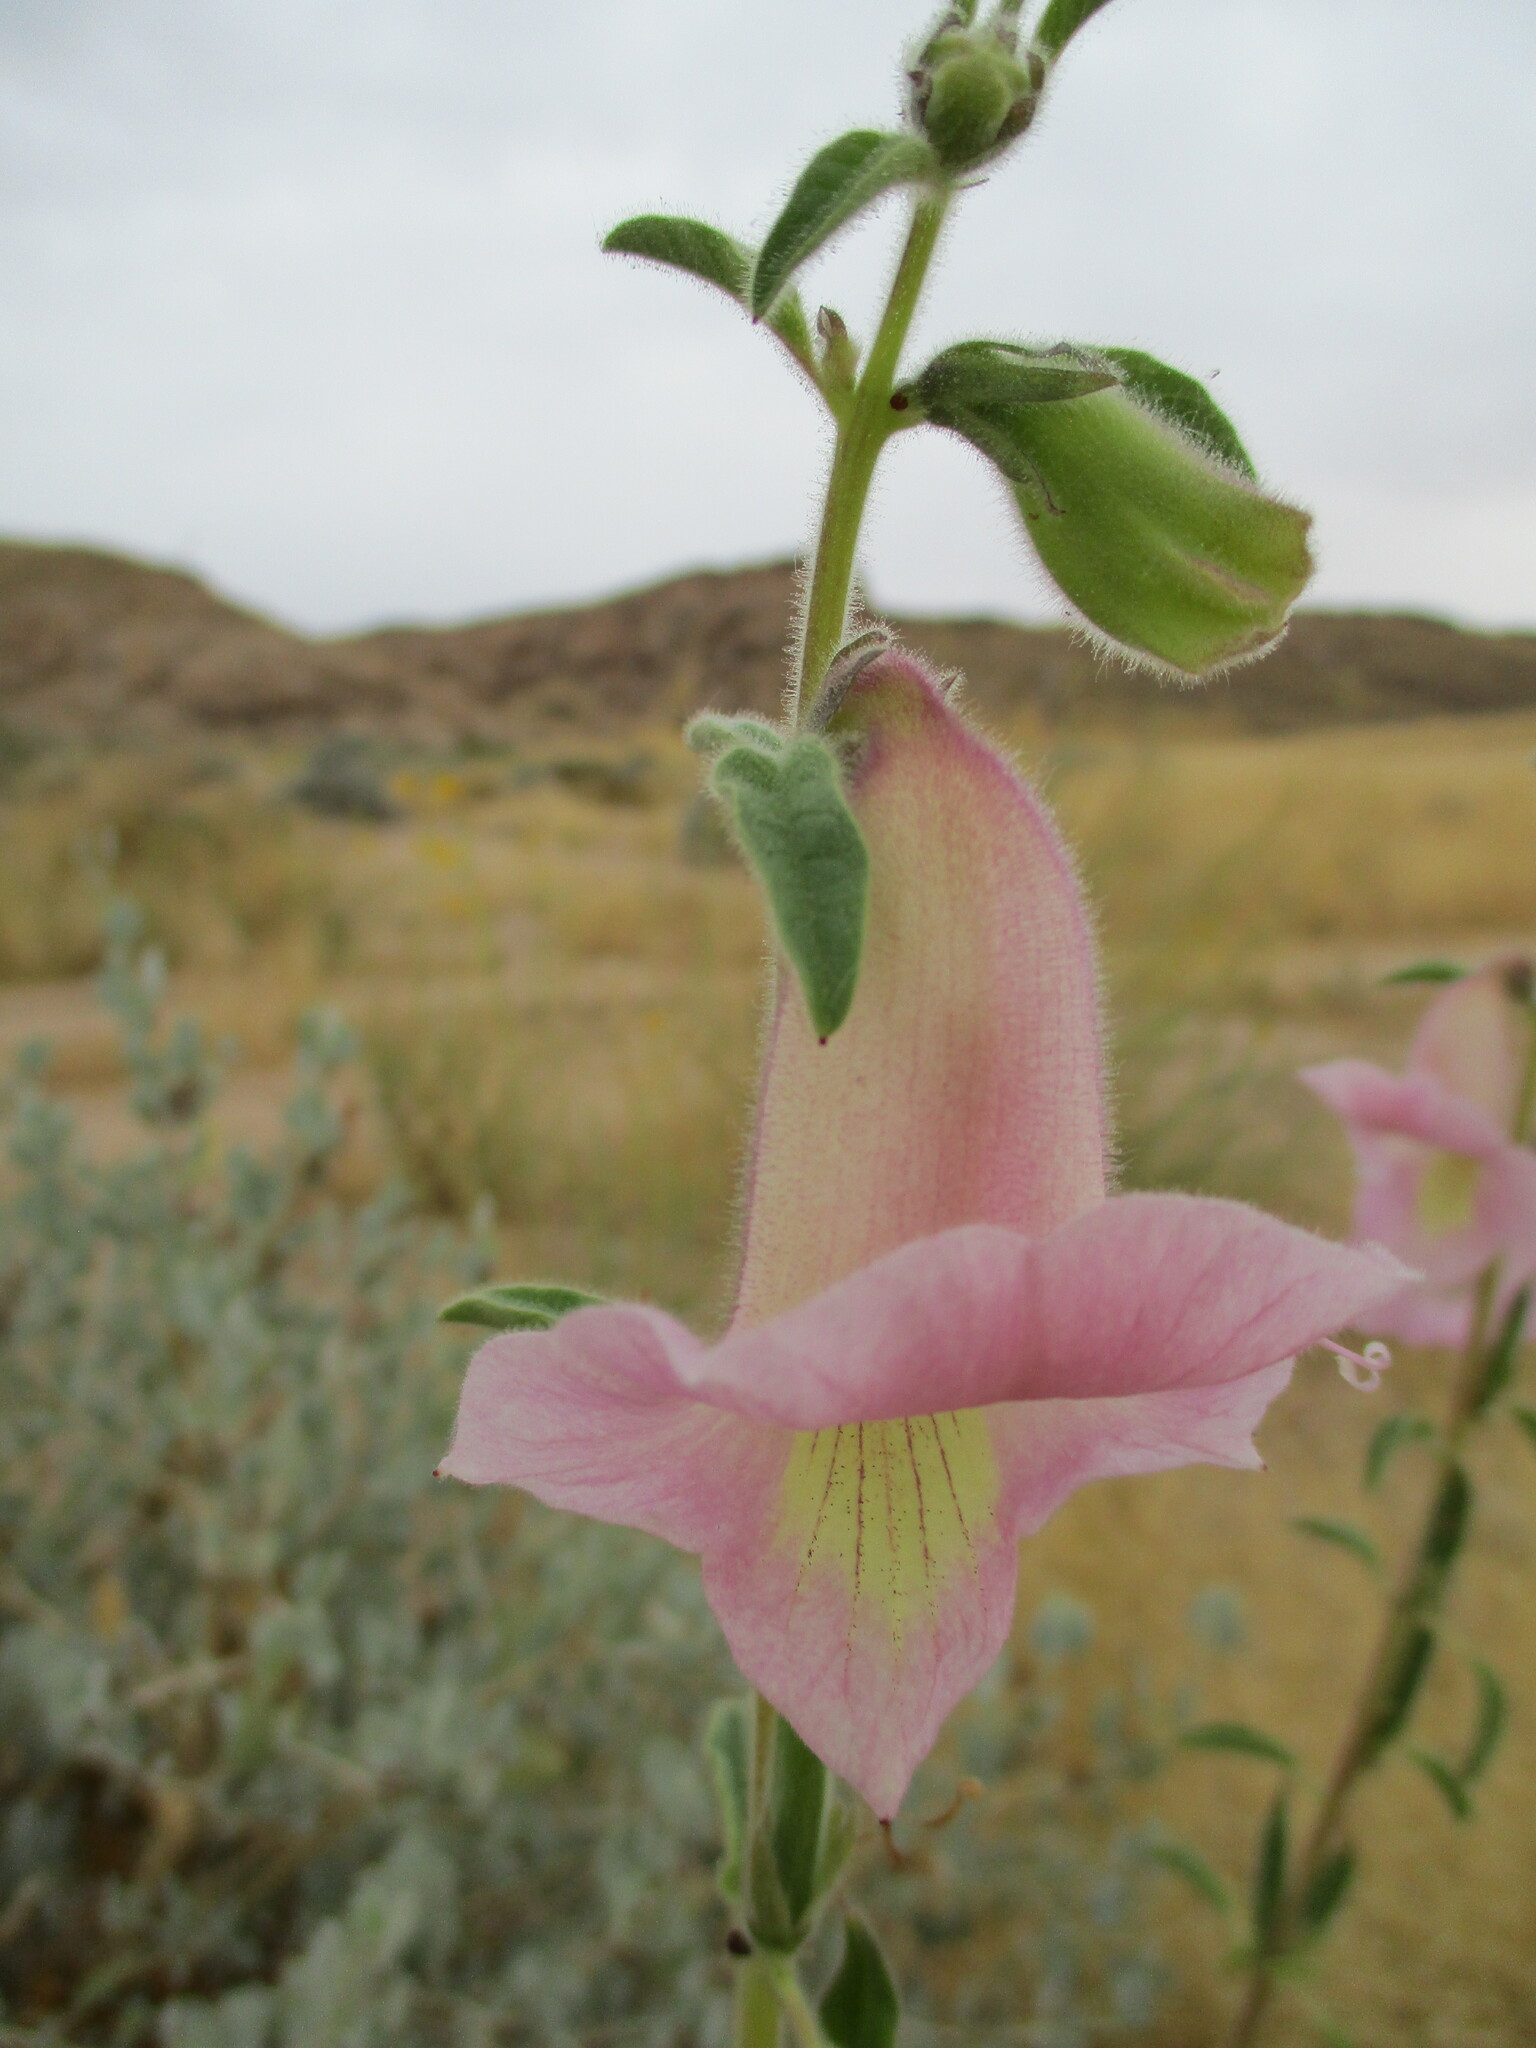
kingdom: Plantae
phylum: Tracheophyta
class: Magnoliopsida
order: Lamiales
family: Pedaliaceae
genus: Sesamum
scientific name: Sesamum marlothii
